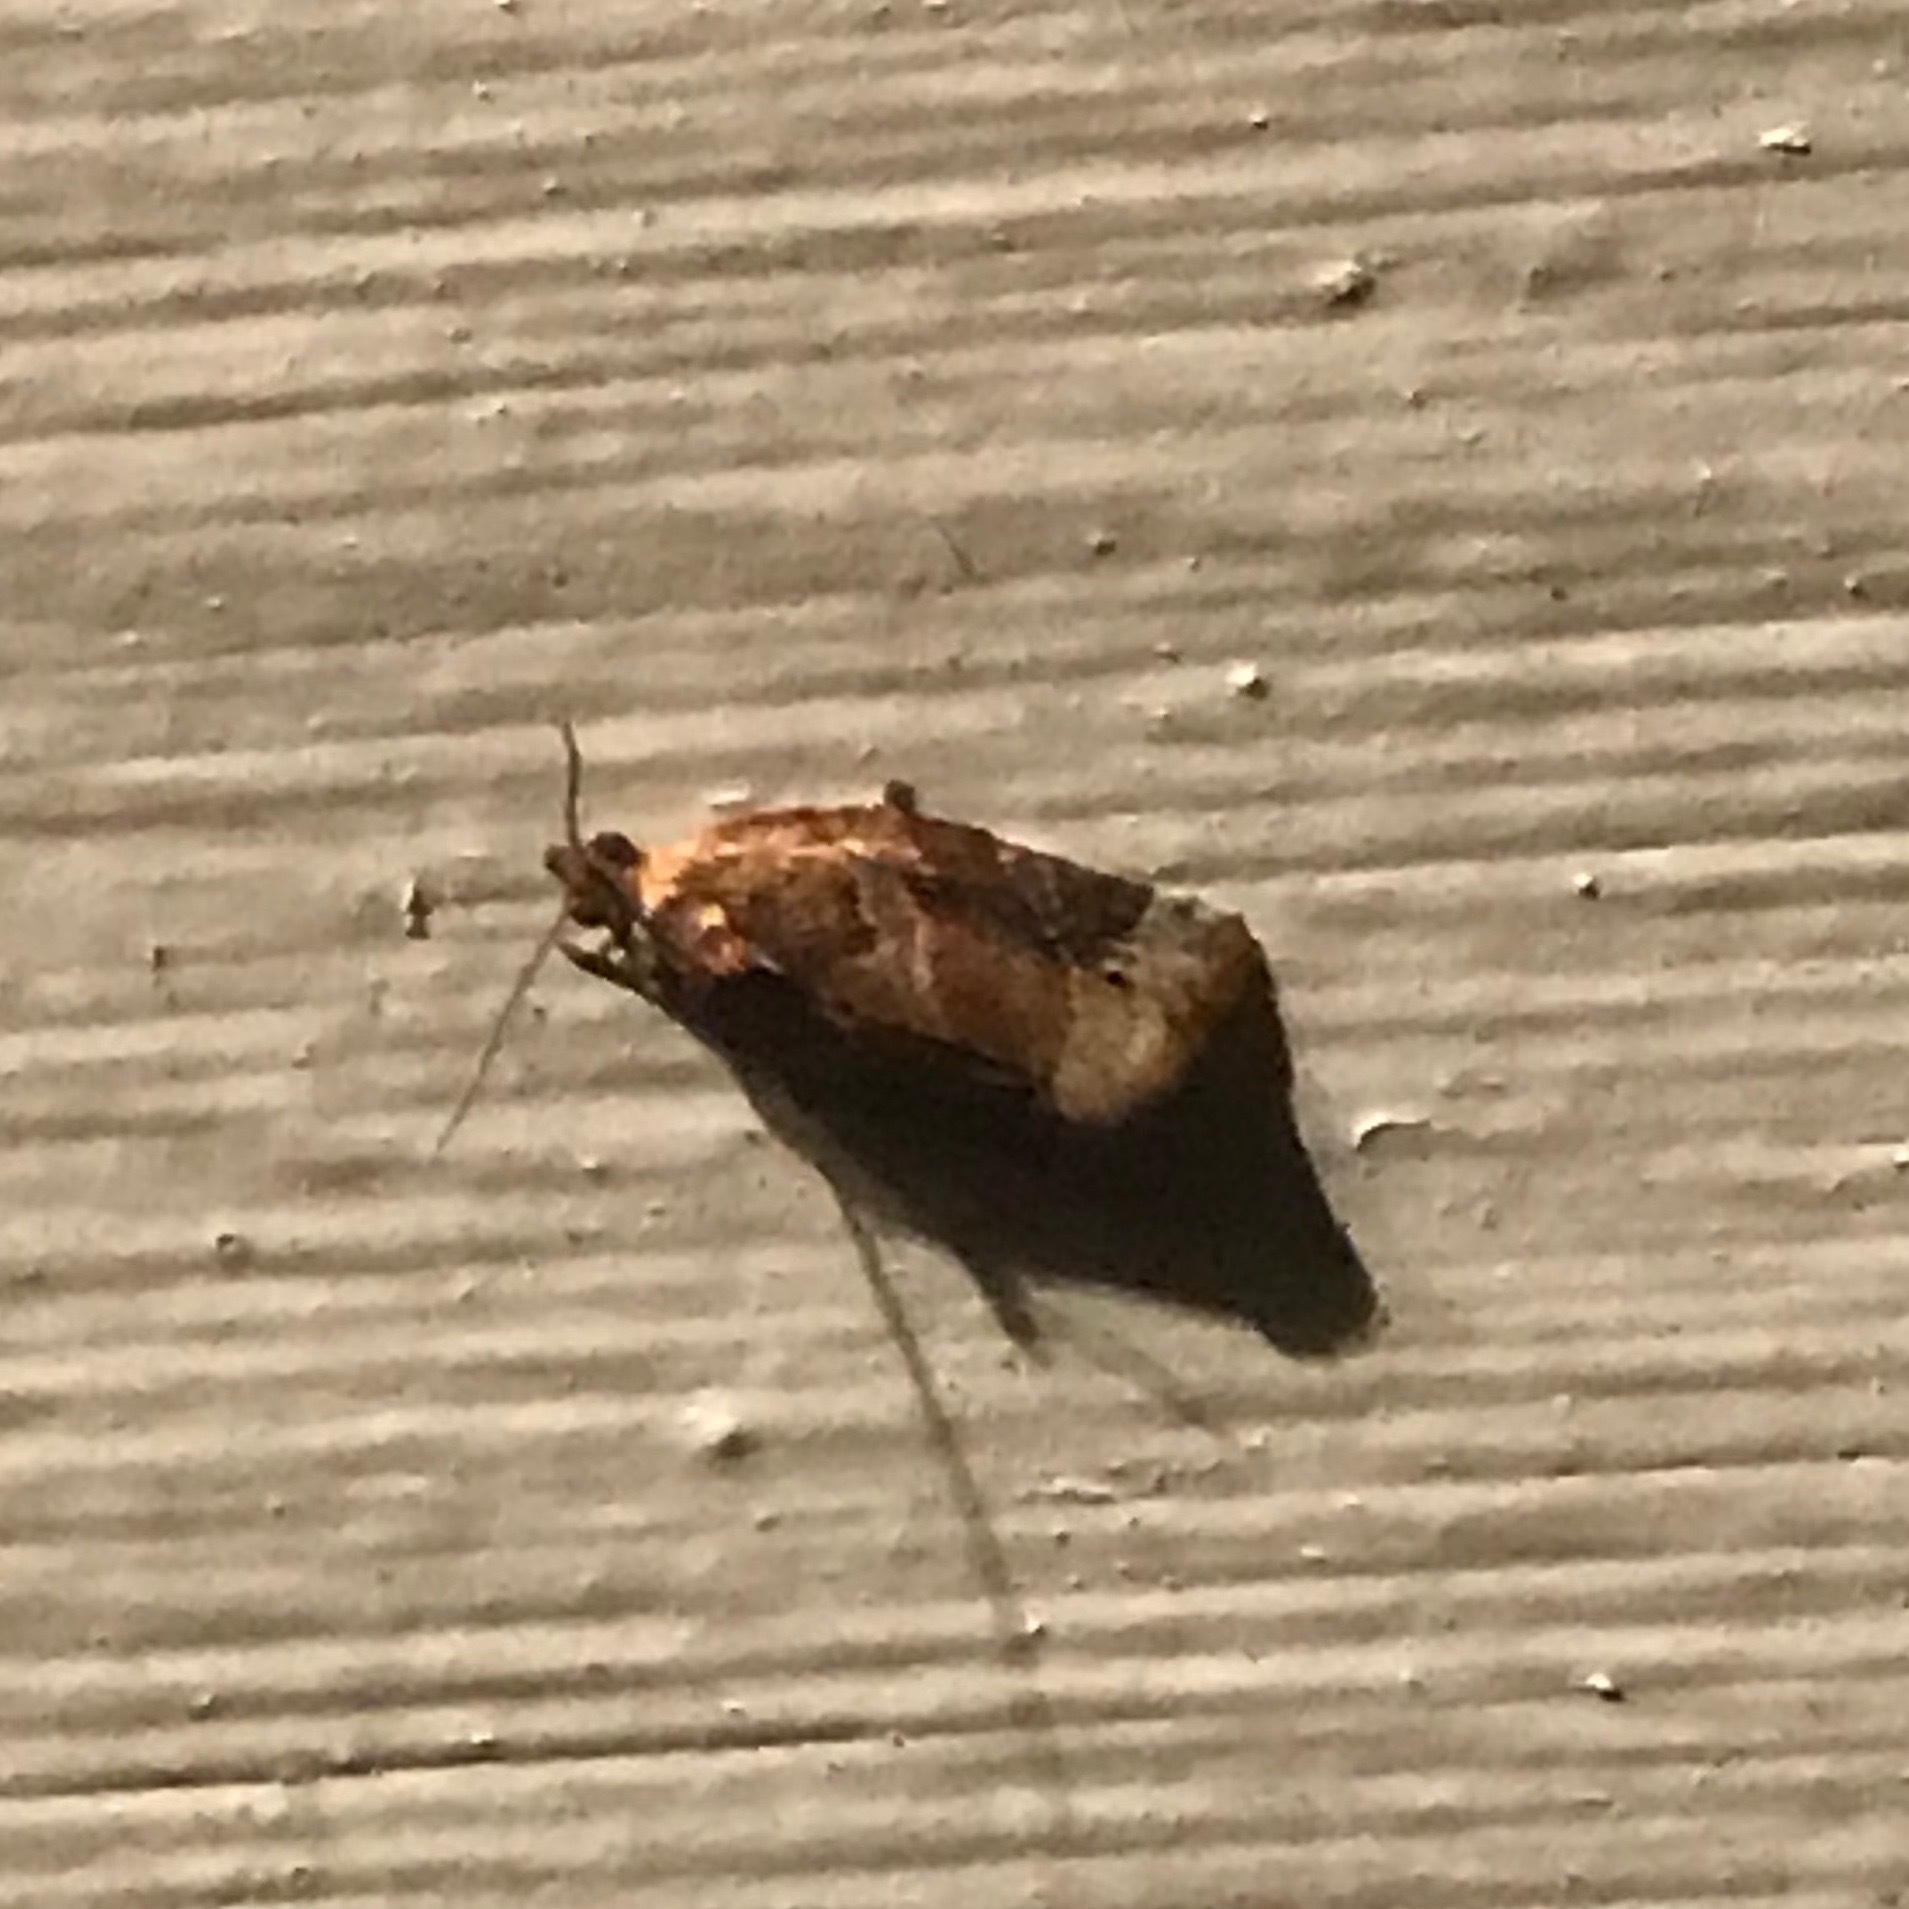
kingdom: Animalia
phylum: Arthropoda
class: Insecta
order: Lepidoptera
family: Tortricidae
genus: Argyrotaenia
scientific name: Argyrotaenia velutinana
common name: Red-banded leafroller moth
